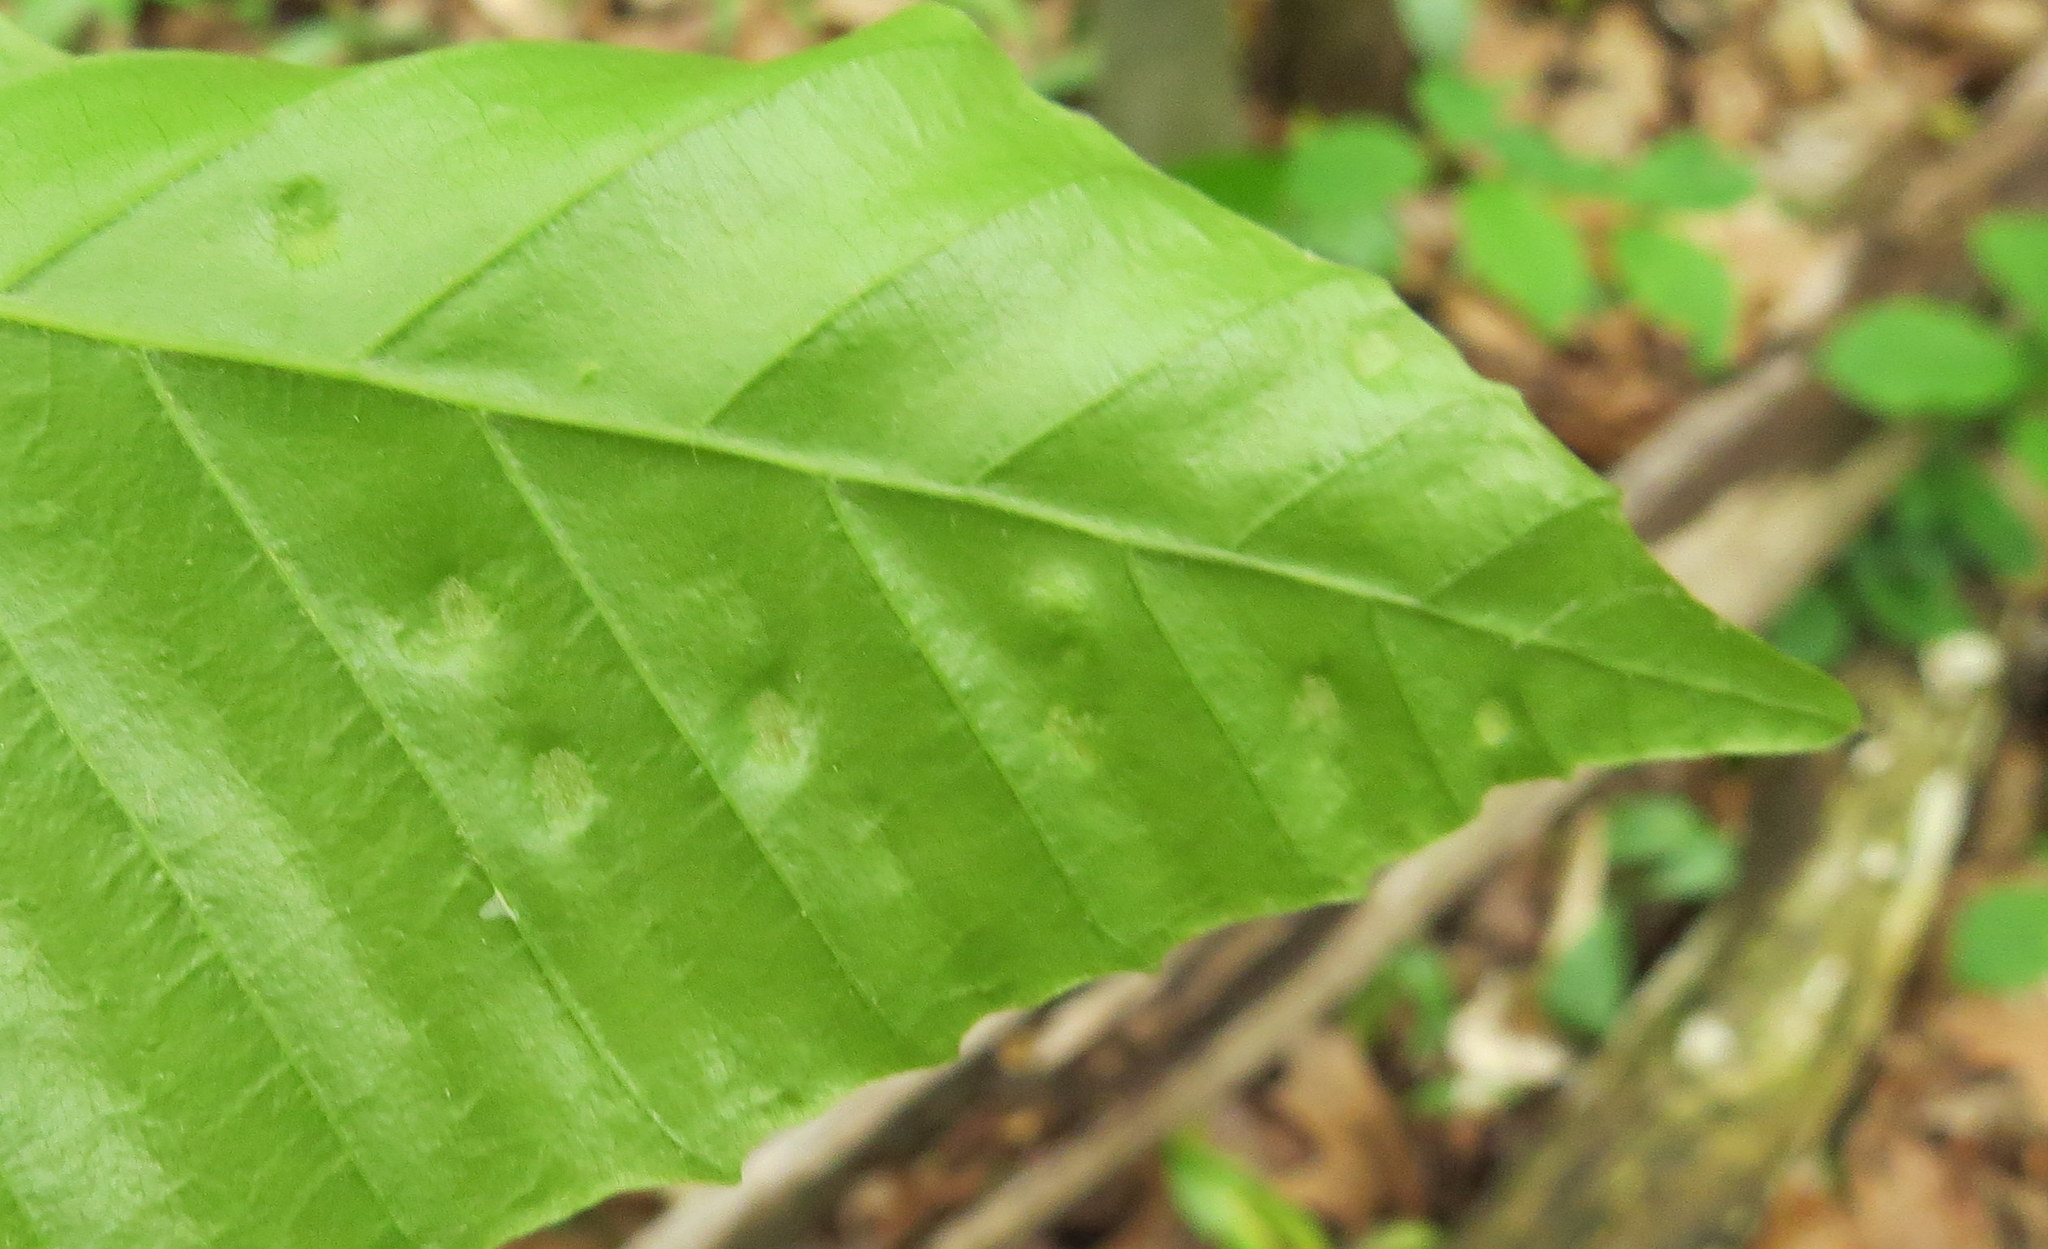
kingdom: Animalia
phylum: Arthropoda
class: Arachnida
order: Trombidiformes
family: Eriophyidae
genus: Acalitus
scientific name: Acalitus
